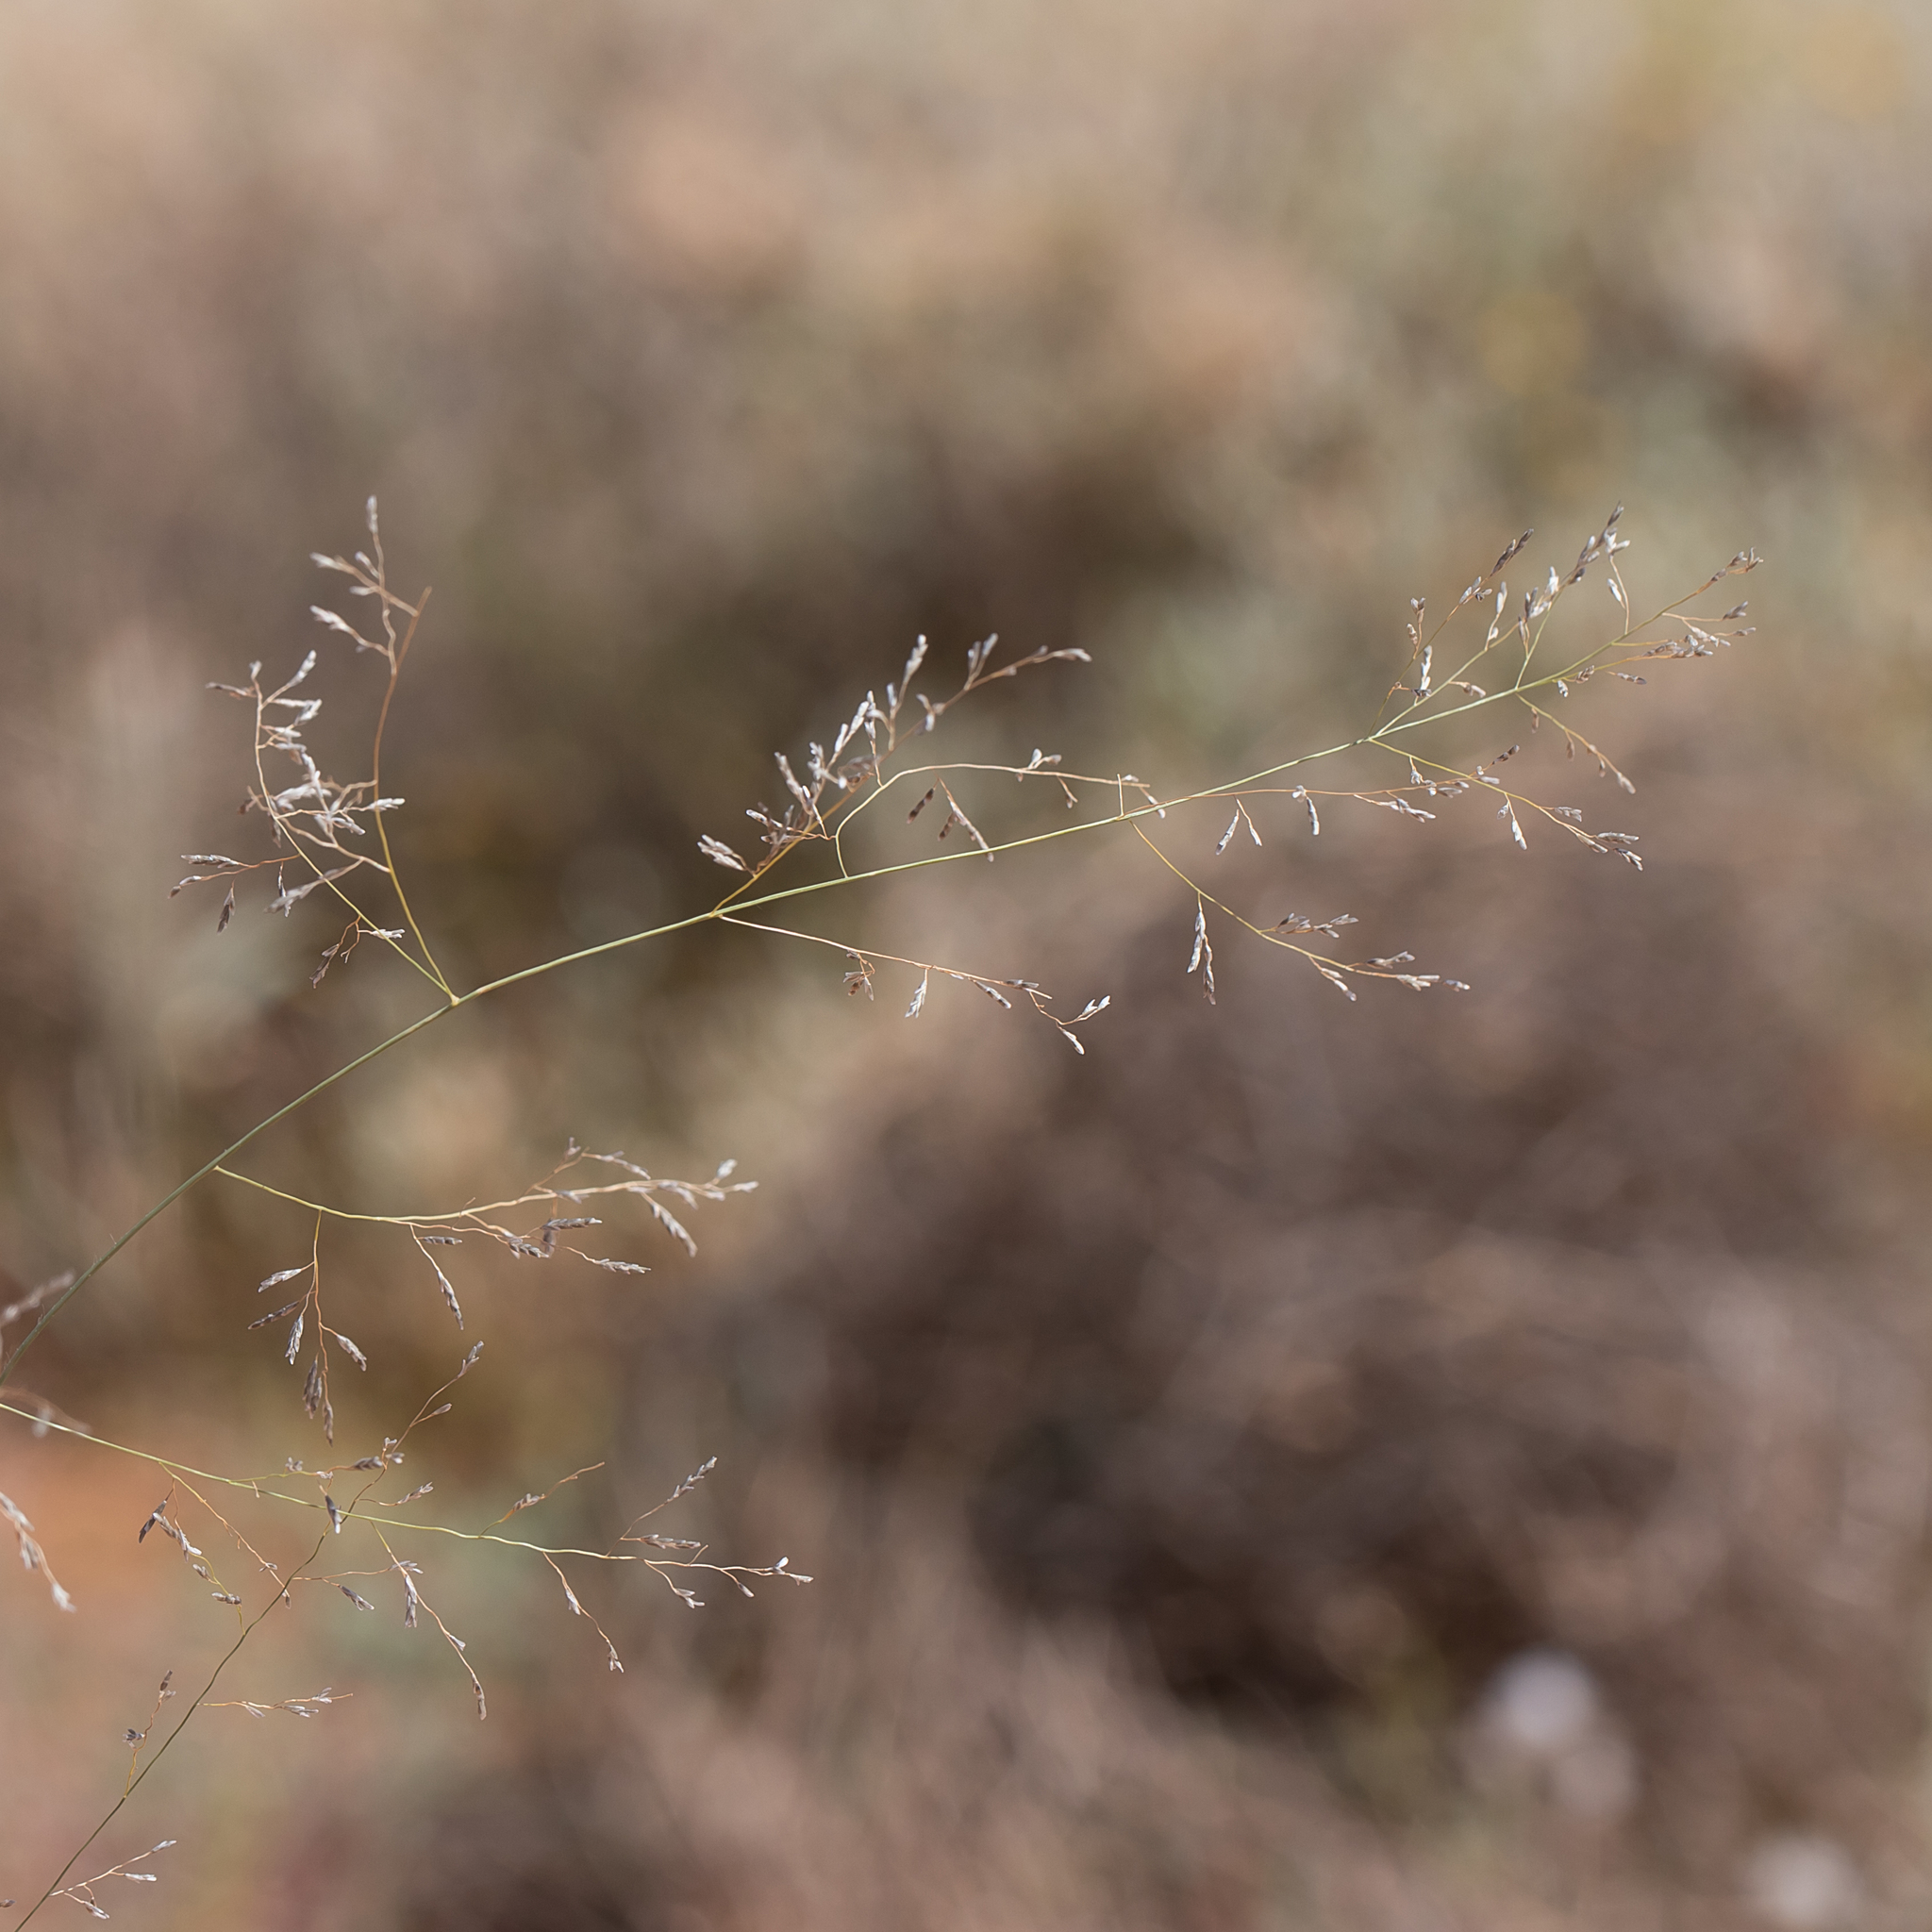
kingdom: Plantae
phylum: Tracheophyta
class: Liliopsida
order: Poales
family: Poaceae
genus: Eragrostis
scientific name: Eragrostis parviflora
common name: Weeping love-grass
